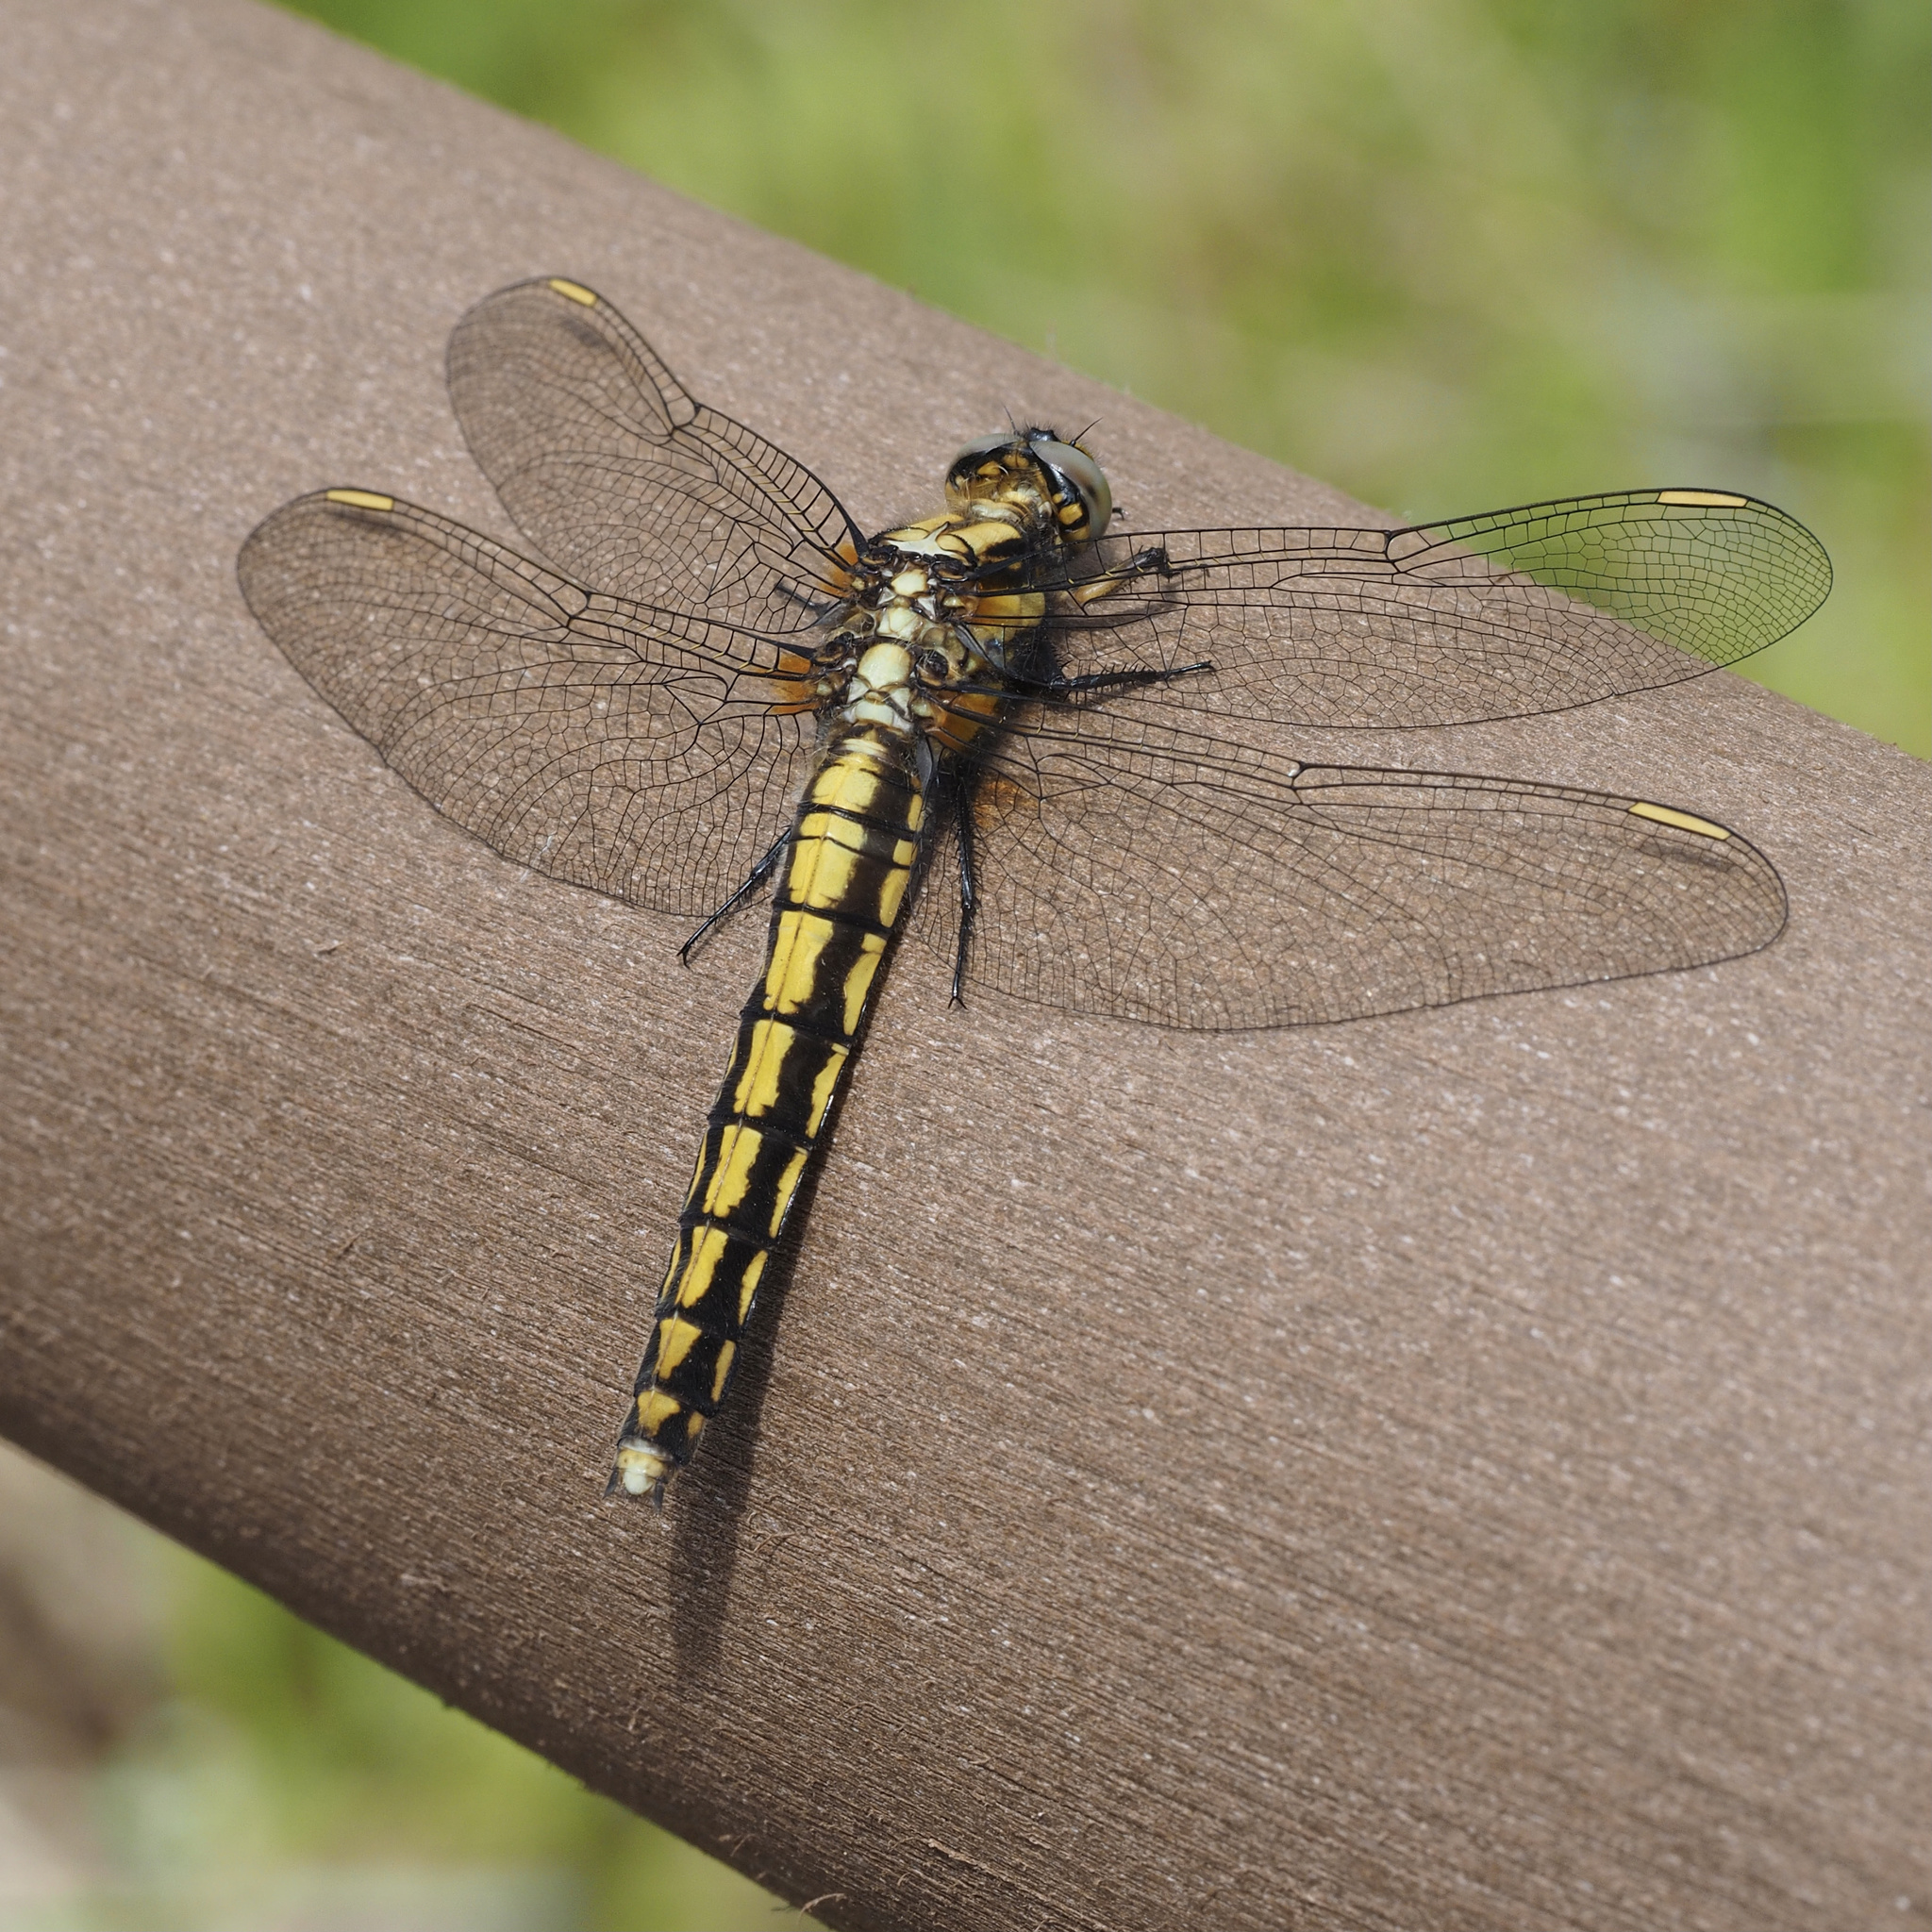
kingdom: Animalia
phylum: Arthropoda
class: Insecta
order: Odonata
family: Libellulidae
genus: Orthetrum
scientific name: Orthetrum japonicum
